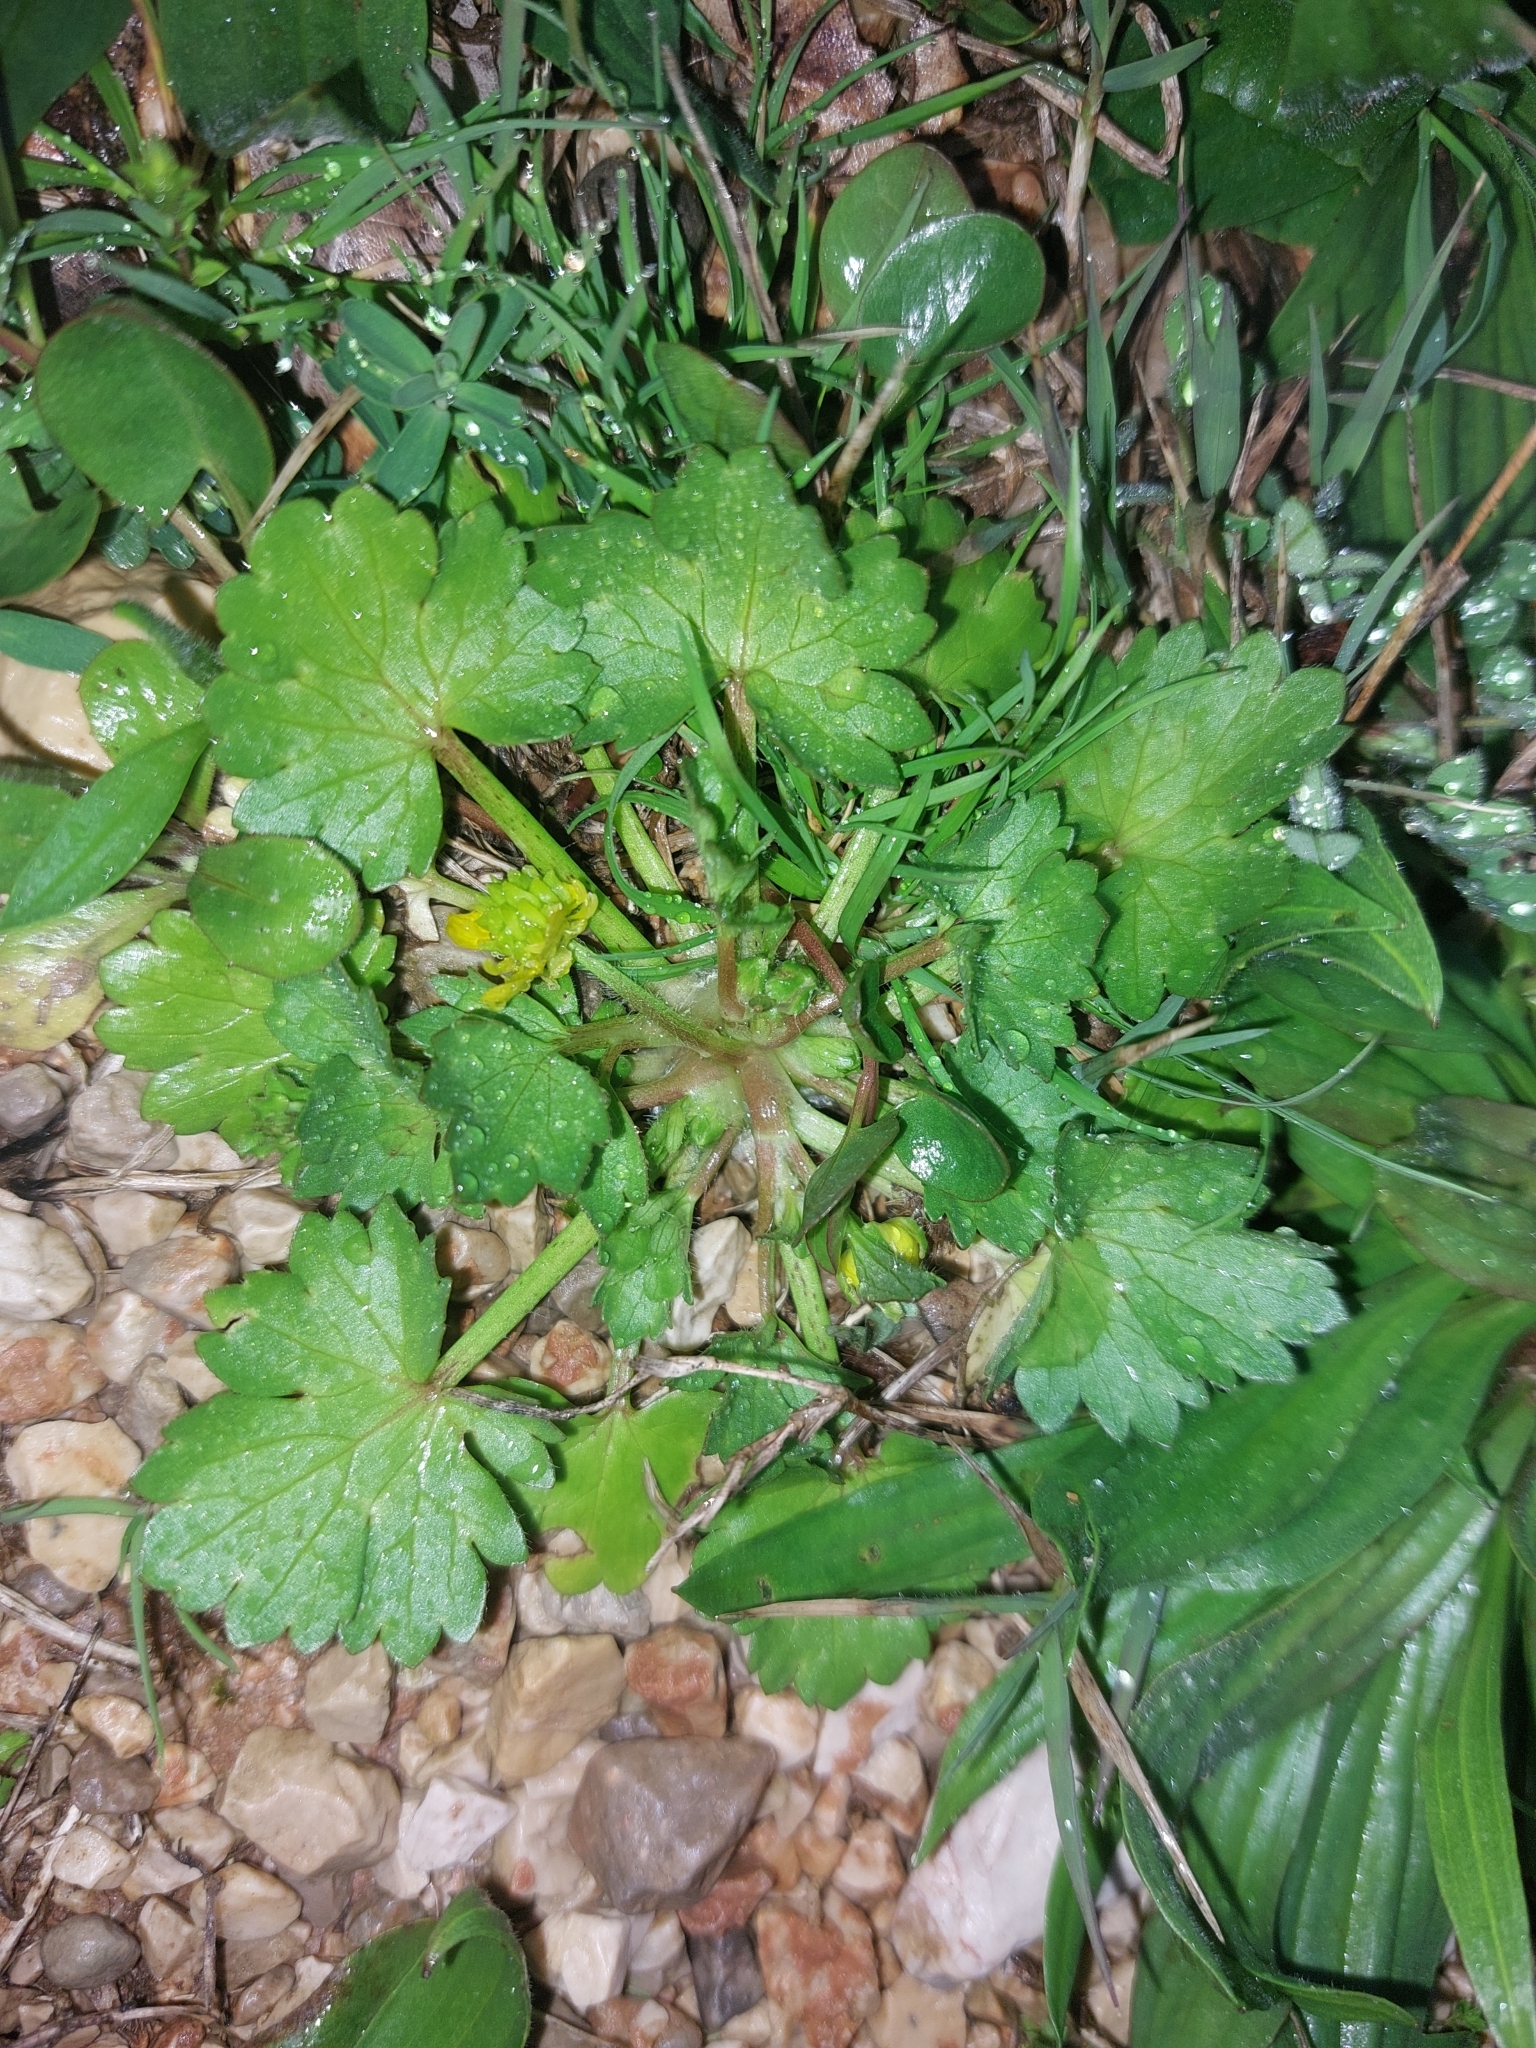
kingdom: Plantae
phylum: Tracheophyta
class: Magnoliopsida
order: Ranunculales
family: Ranunculaceae
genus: Ranunculus
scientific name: Ranunculus muricatus
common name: Rough-fruited buttercup
